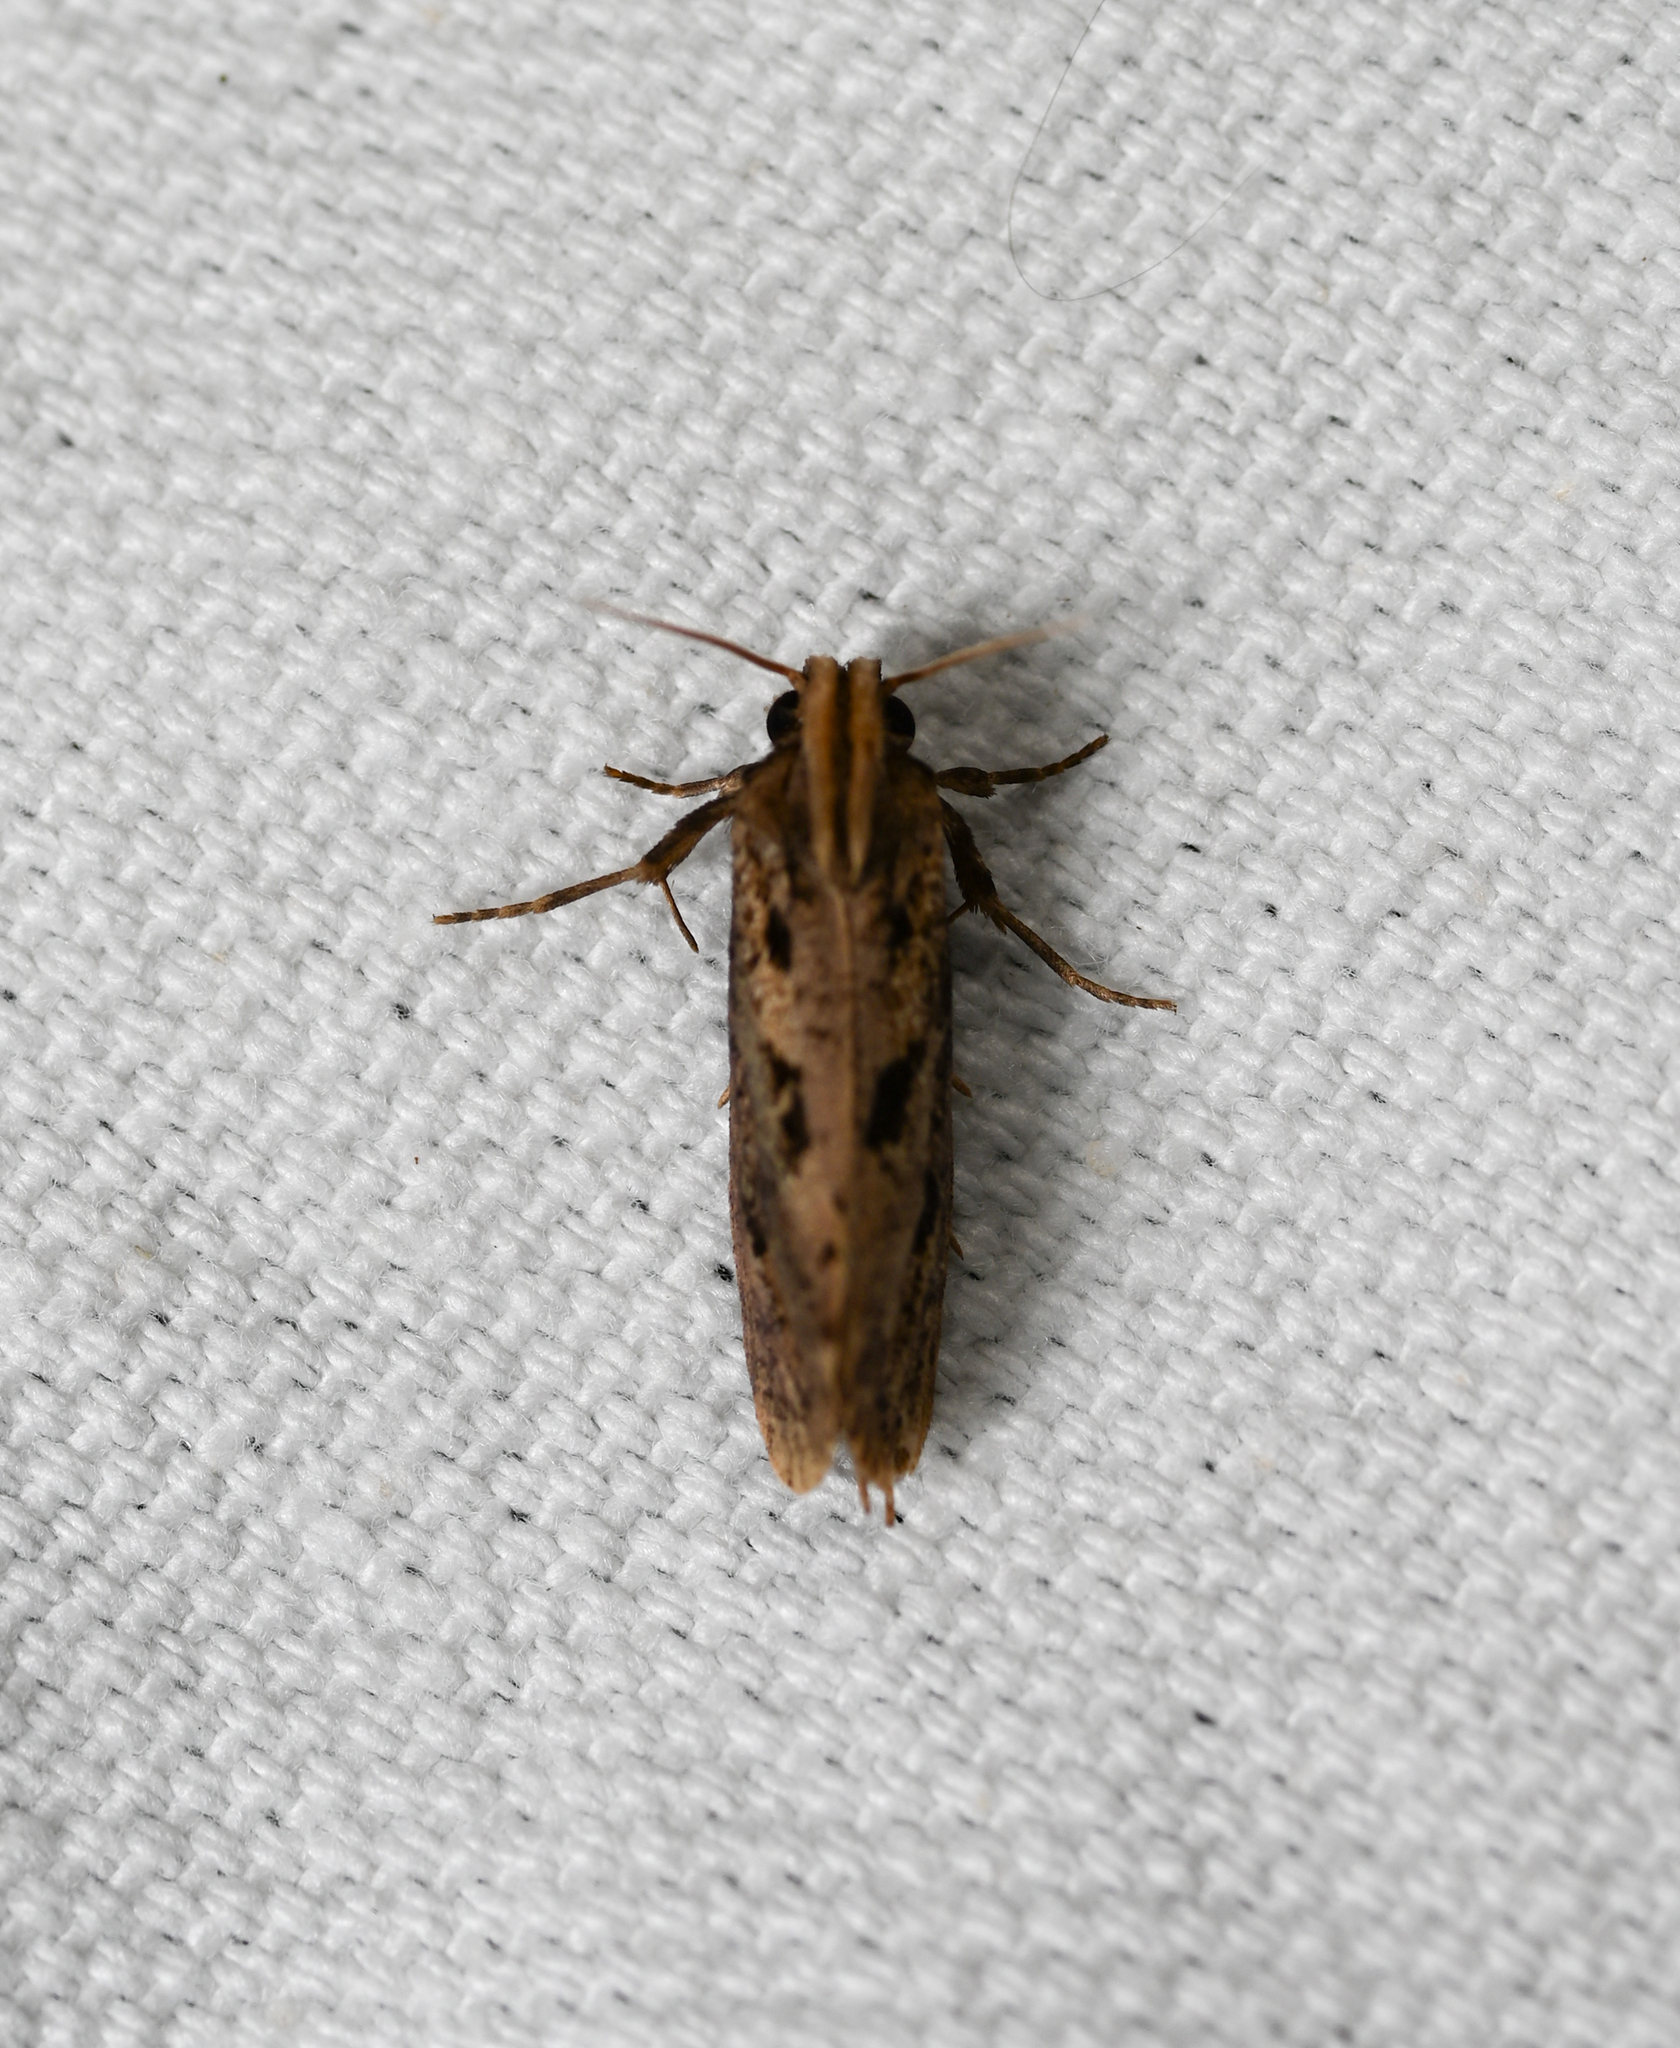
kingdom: Animalia
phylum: Arthropoda
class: Insecta
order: Lepidoptera
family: Tineidae
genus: Acrolophus
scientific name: Acrolophus popeanella
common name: Clemens' grass tubeworm moth
